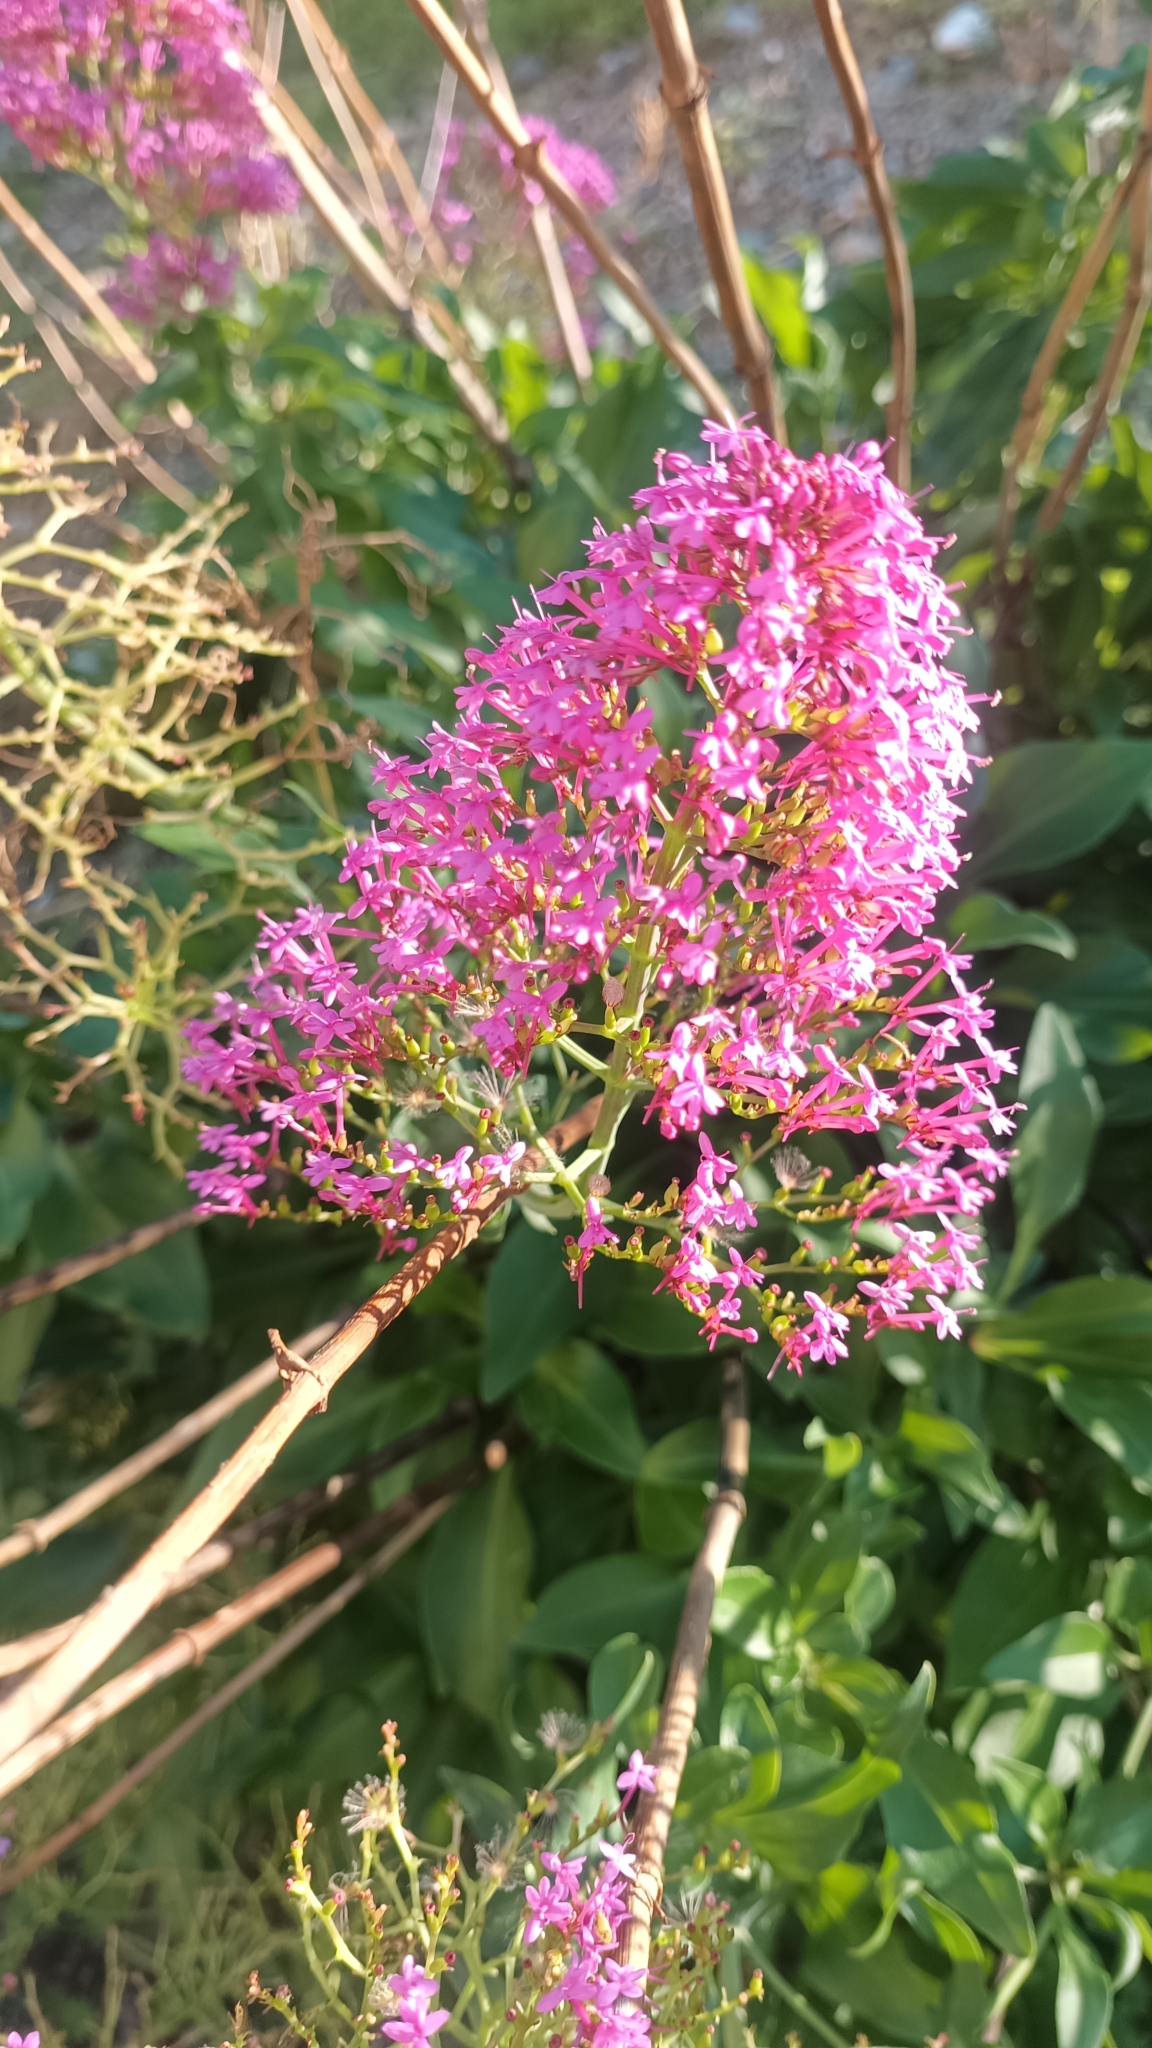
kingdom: Plantae
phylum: Tracheophyta
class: Magnoliopsida
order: Dipsacales
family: Caprifoliaceae
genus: Centranthus
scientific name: Centranthus ruber
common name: Red valerian
